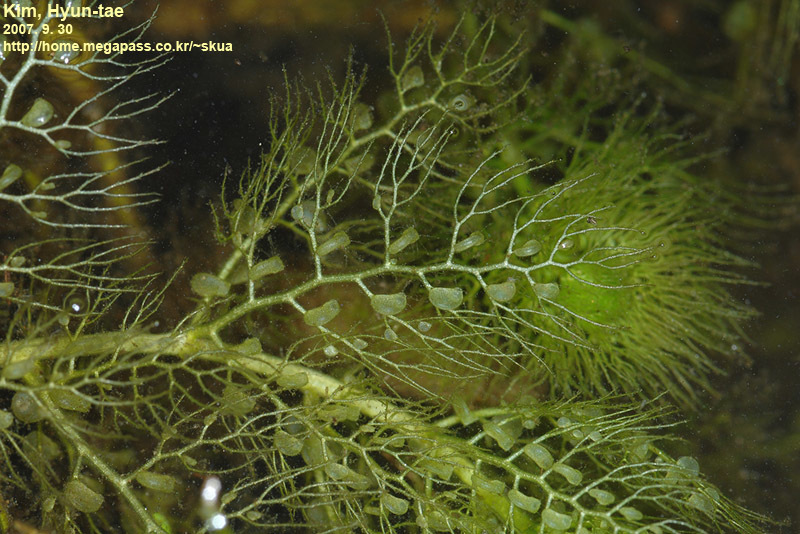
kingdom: Plantae
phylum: Tracheophyta
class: Magnoliopsida
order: Lamiales
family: Lentibulariaceae
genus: Utricularia
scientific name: Utricularia australis
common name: Bladderwort
